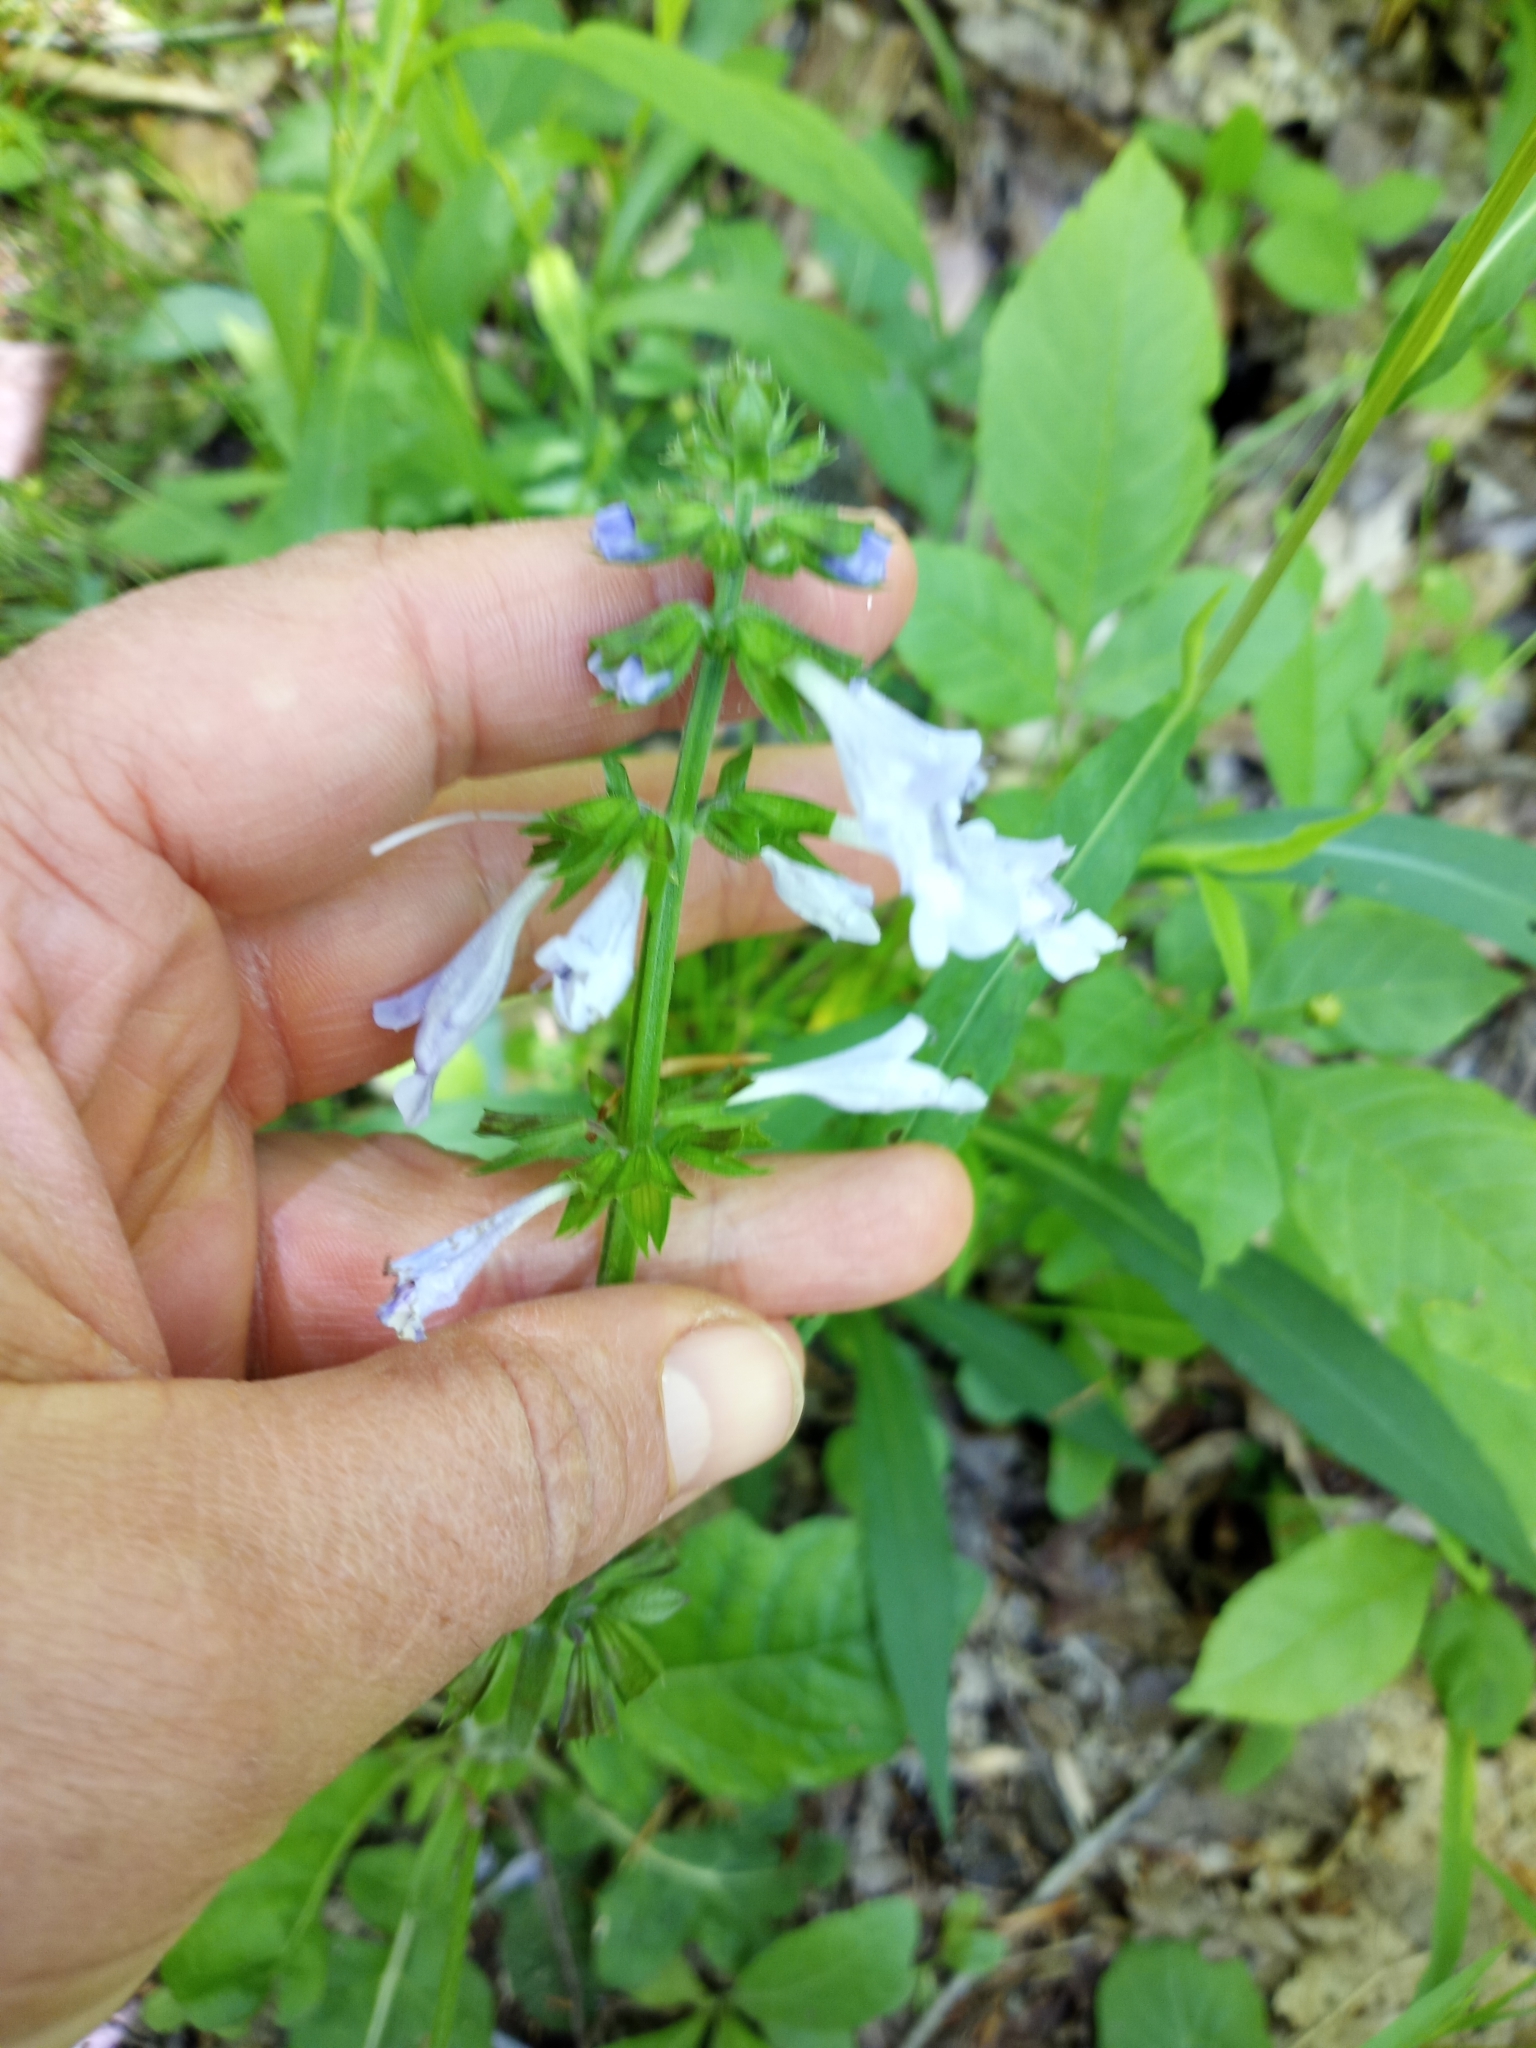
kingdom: Plantae
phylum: Tracheophyta
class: Magnoliopsida
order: Lamiales
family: Lamiaceae
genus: Salvia
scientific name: Salvia lyrata
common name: Cancerweed
